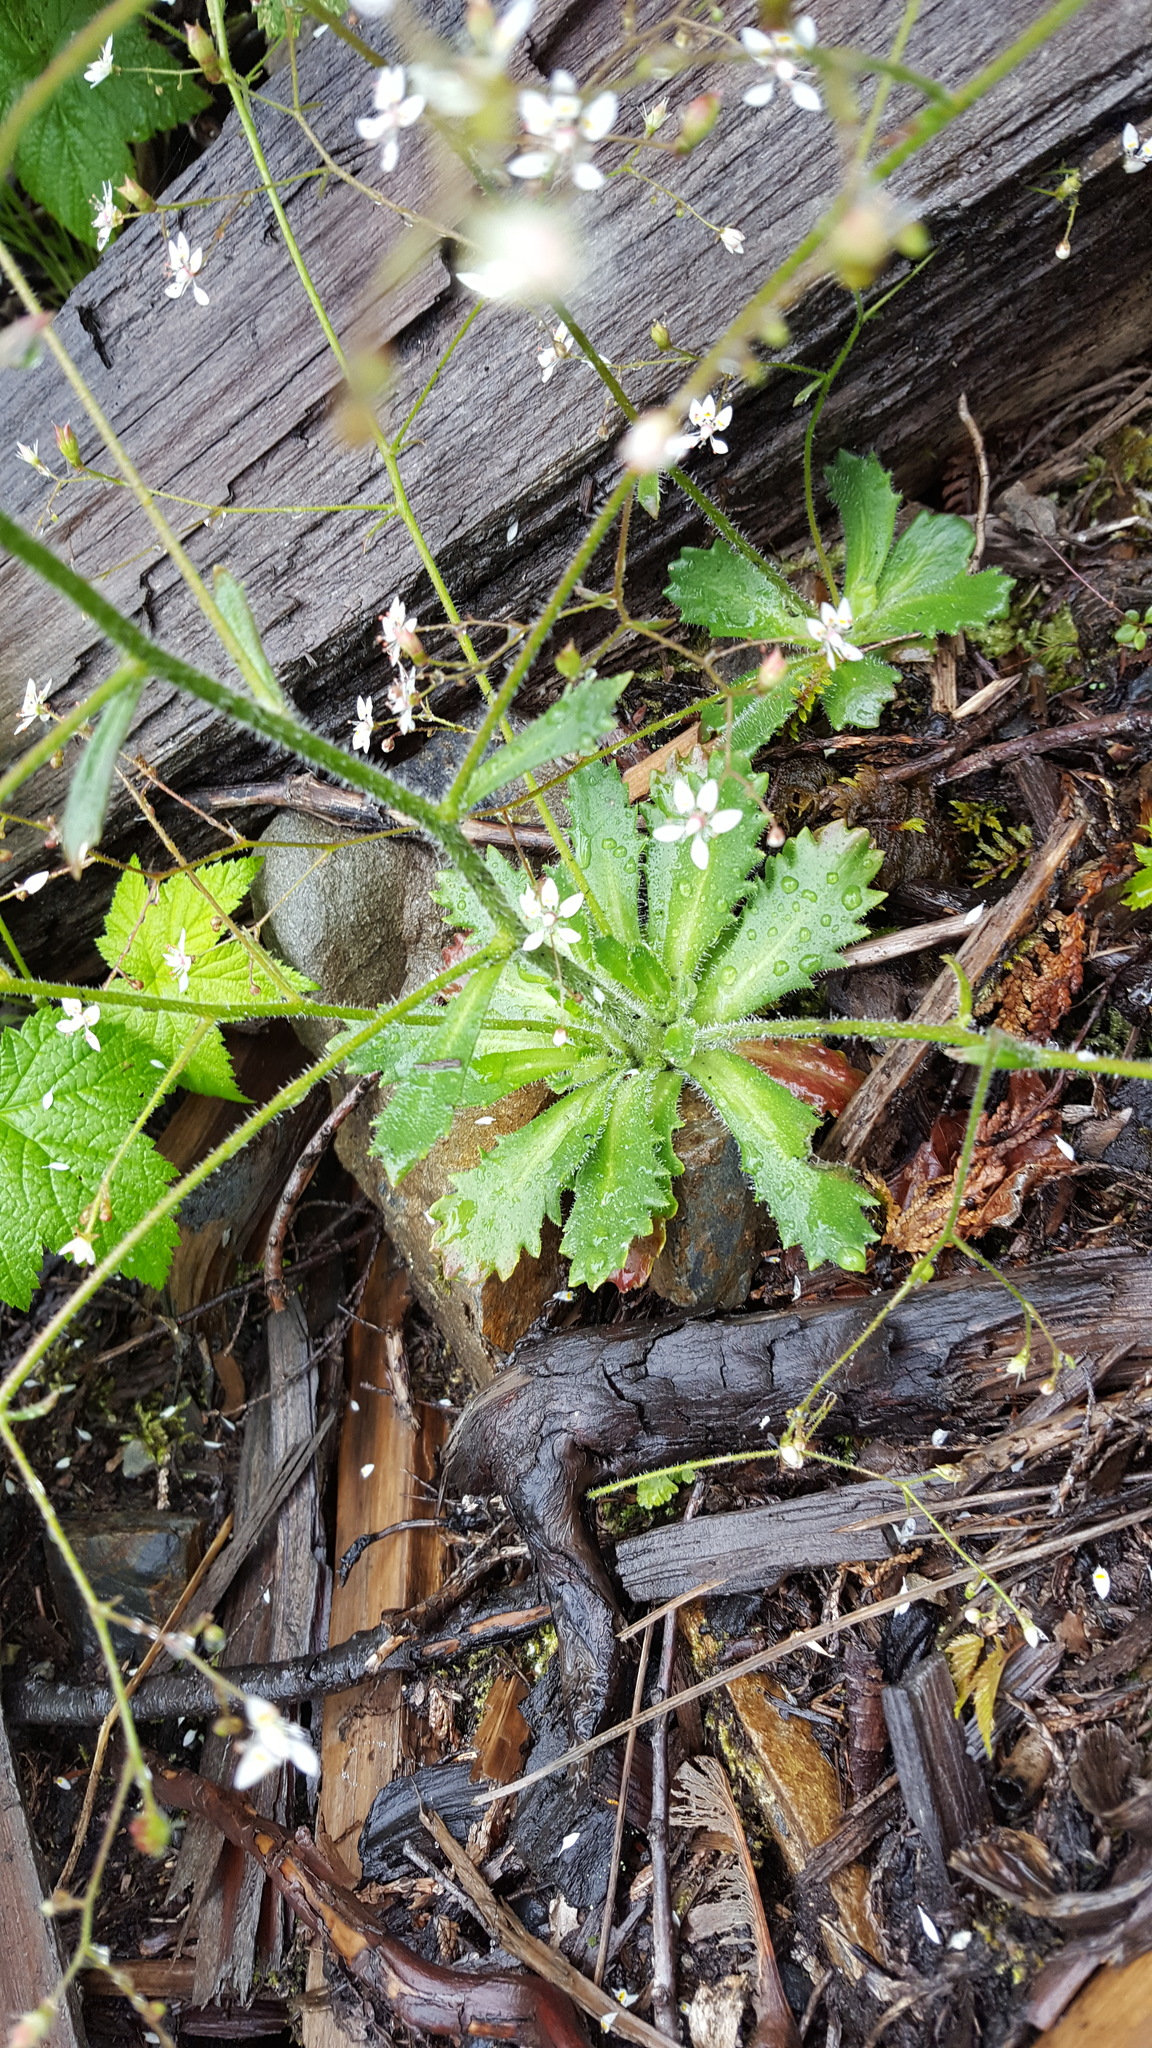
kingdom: Plantae
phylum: Tracheophyta
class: Magnoliopsida
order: Saxifragales
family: Saxifragaceae
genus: Micranthes
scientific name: Micranthes ferruginea
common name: Rusty saxifrage
